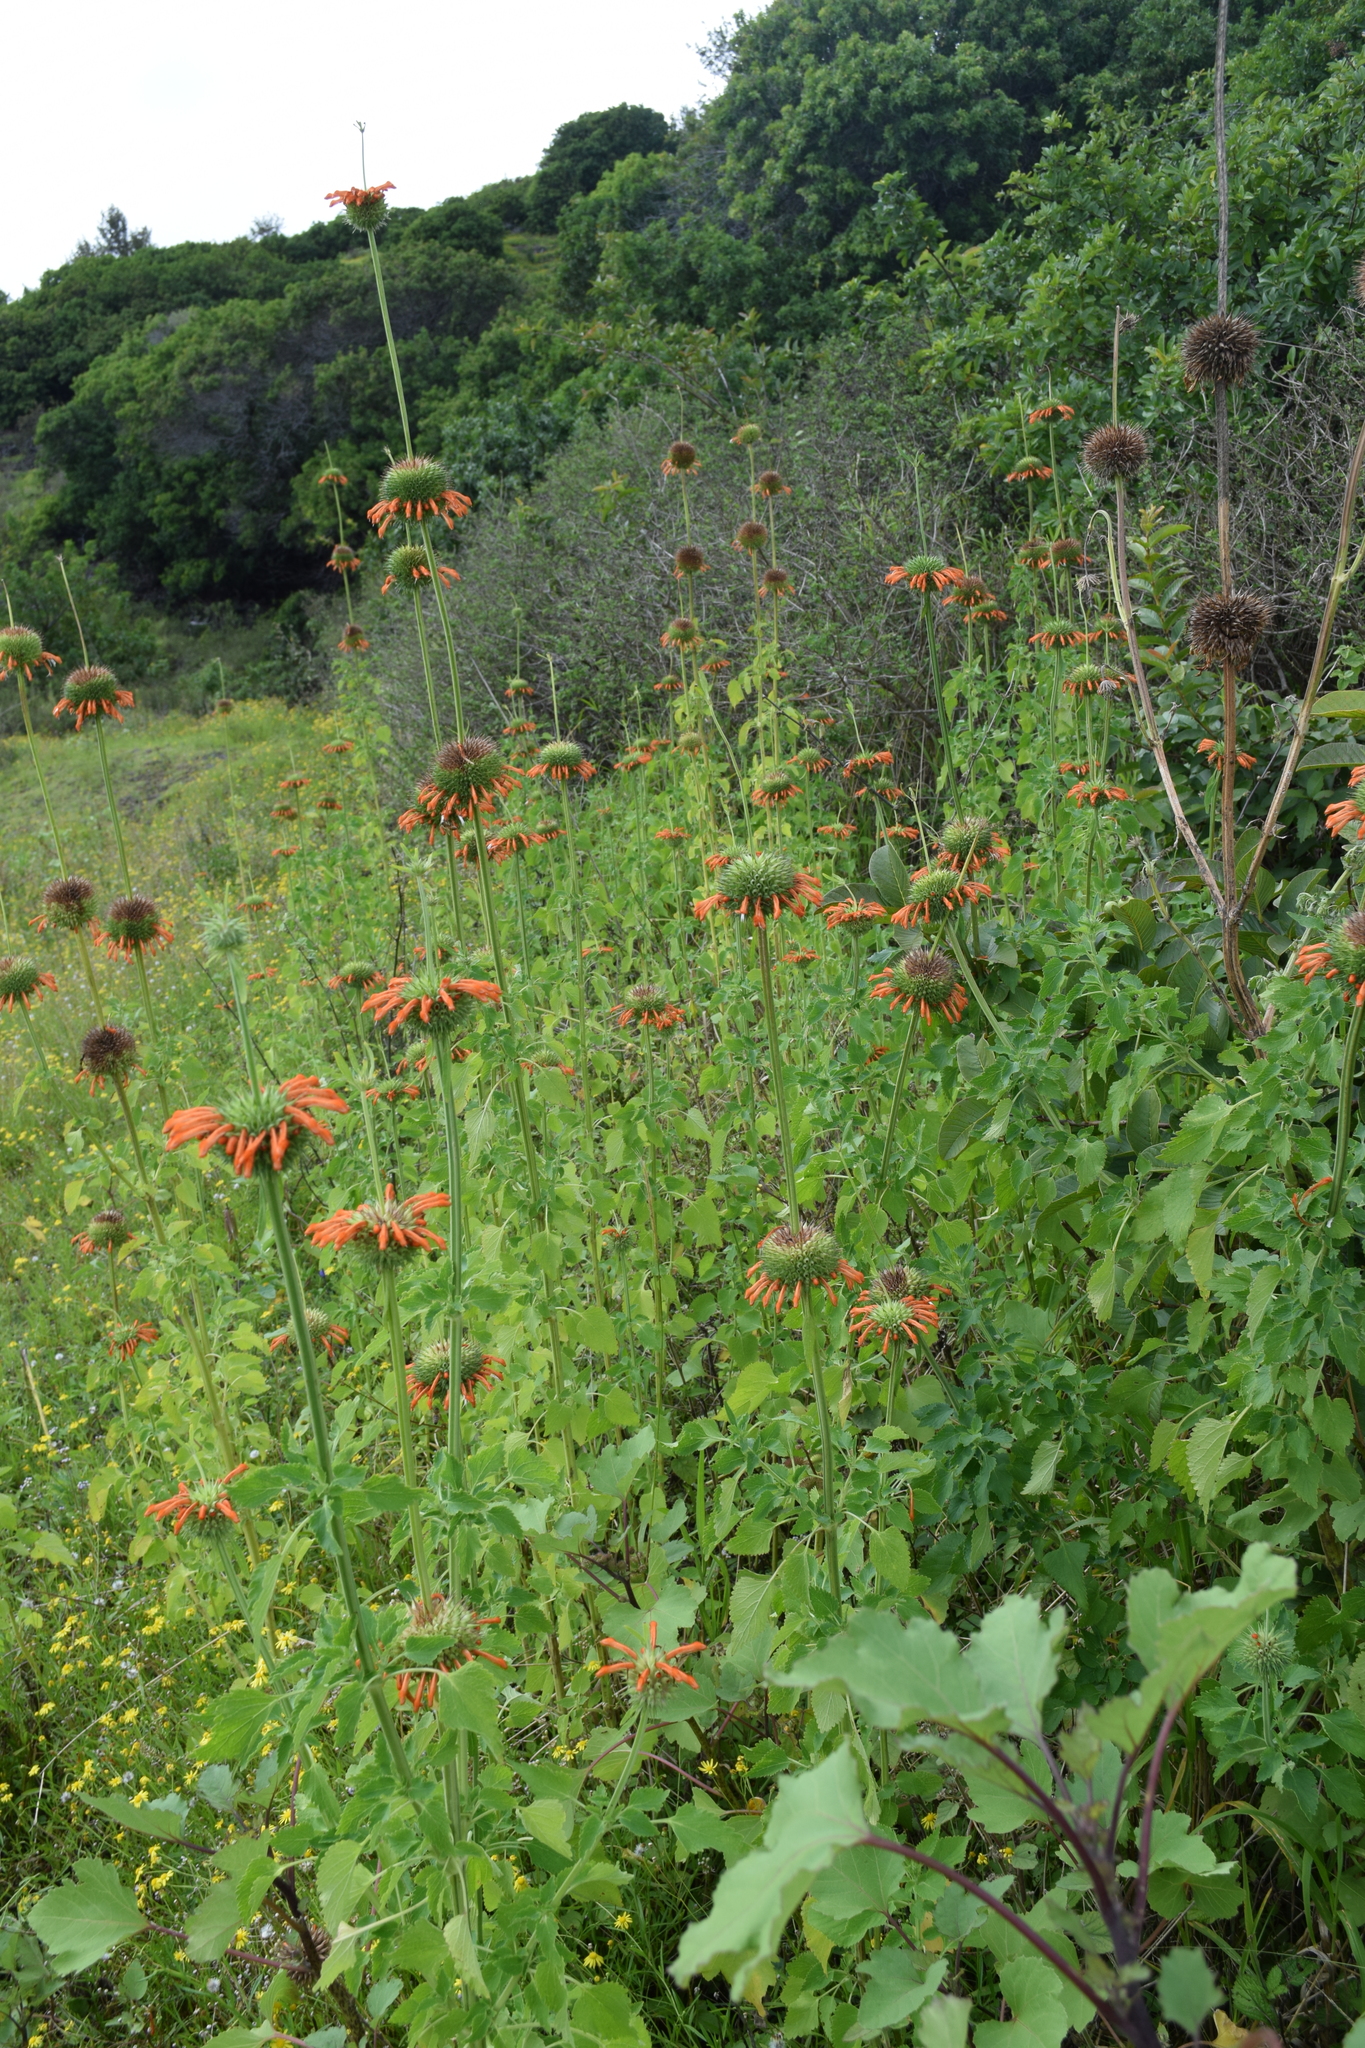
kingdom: Plantae
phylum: Tracheophyta
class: Magnoliopsida
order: Lamiales
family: Lamiaceae
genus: Leonotis
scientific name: Leonotis nepetifolia
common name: Christmas candlestick
